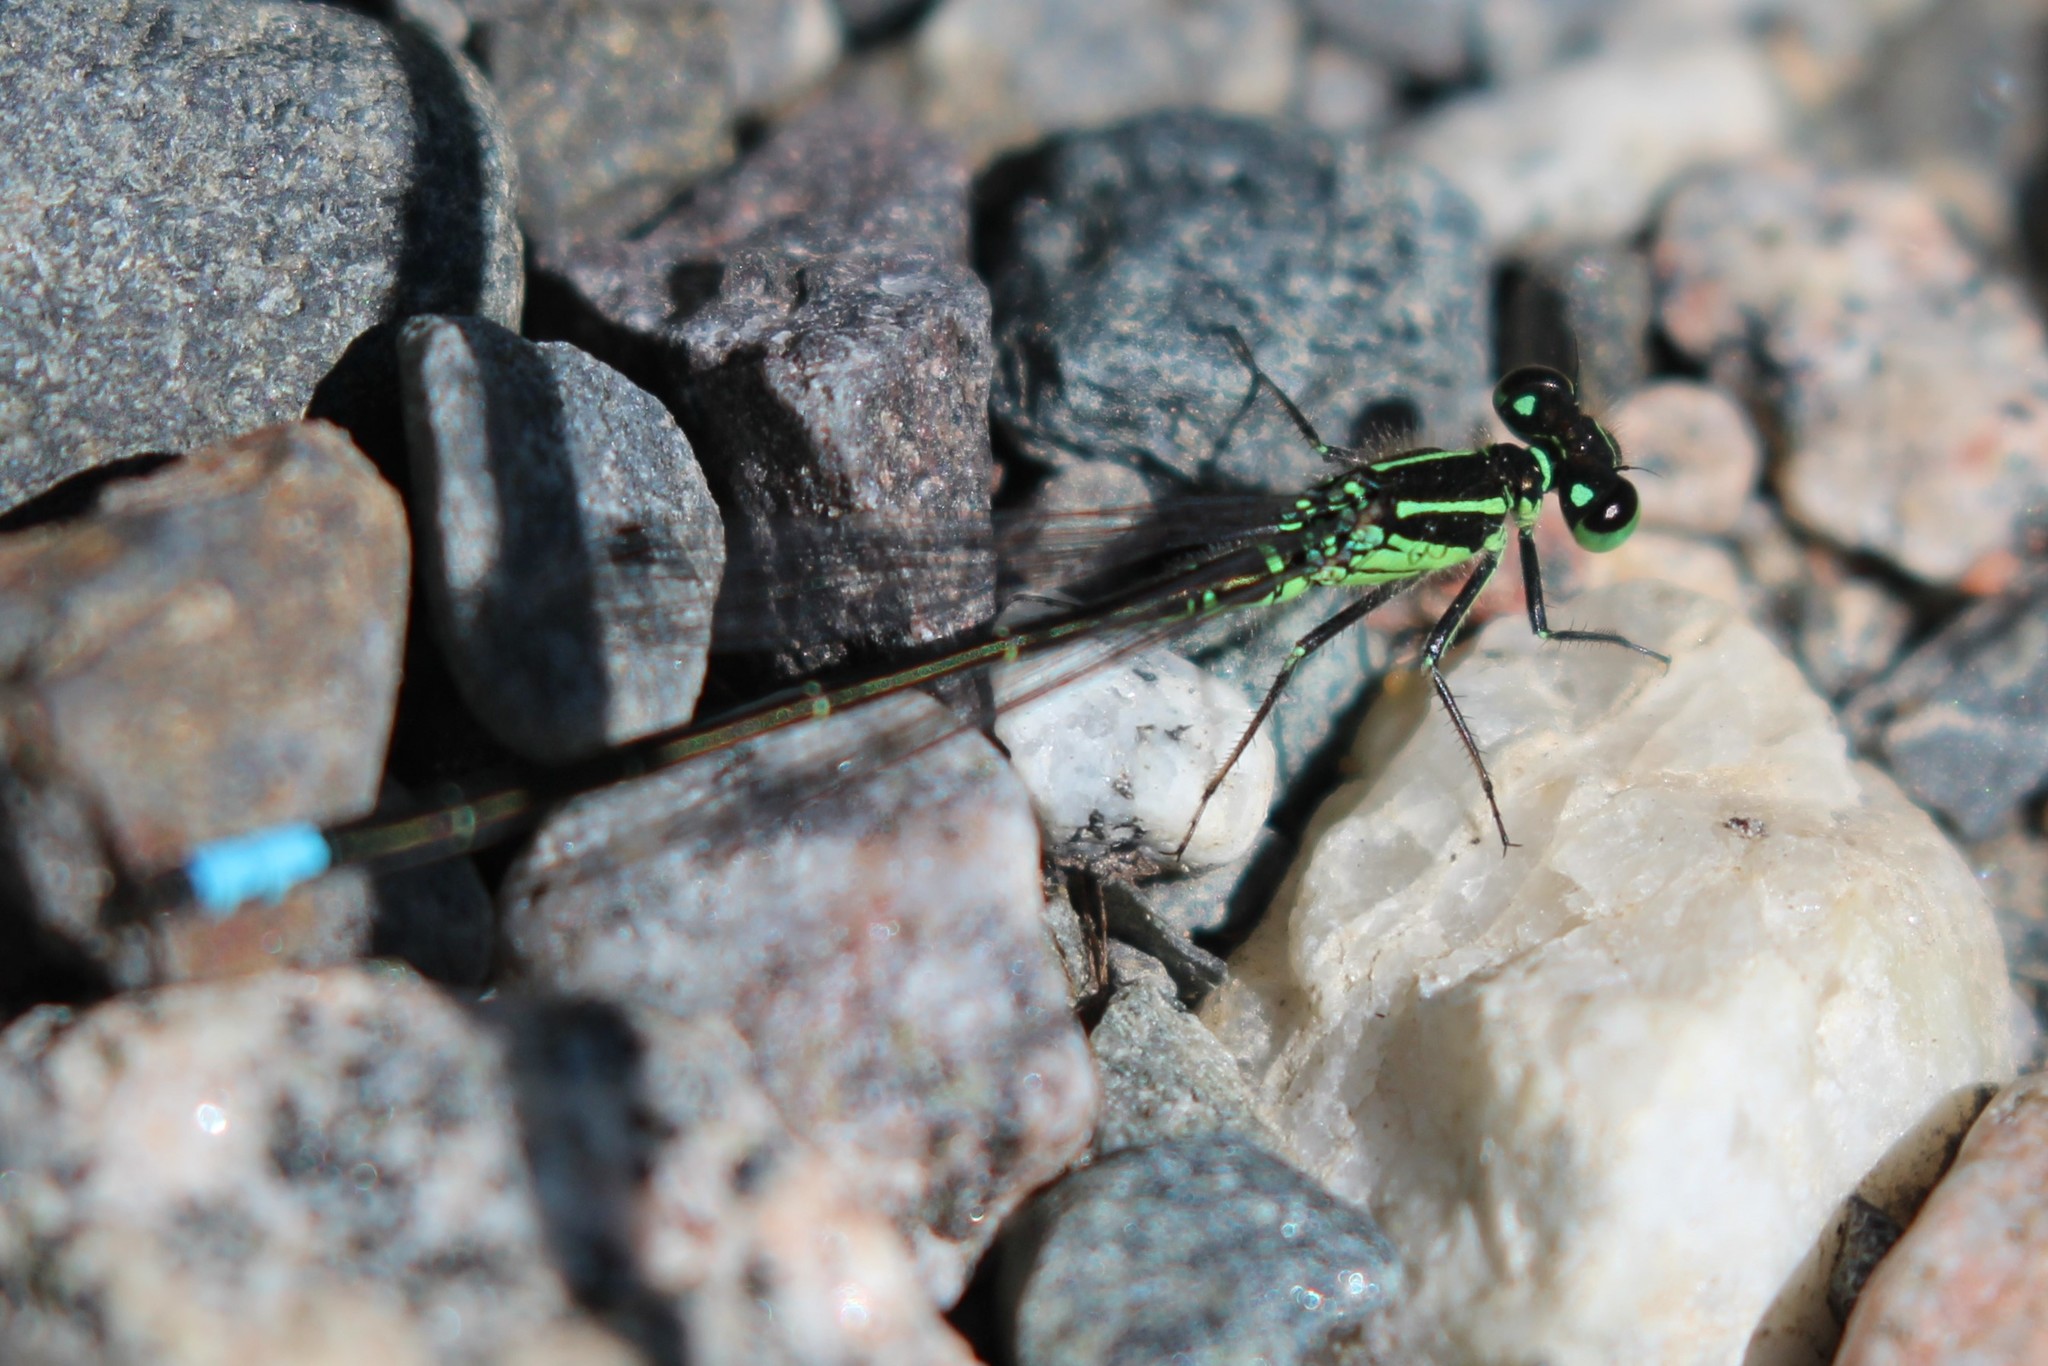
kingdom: Animalia
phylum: Arthropoda
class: Insecta
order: Odonata
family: Coenagrionidae
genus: Ischnura
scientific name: Ischnura verticalis
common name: Eastern forktail
